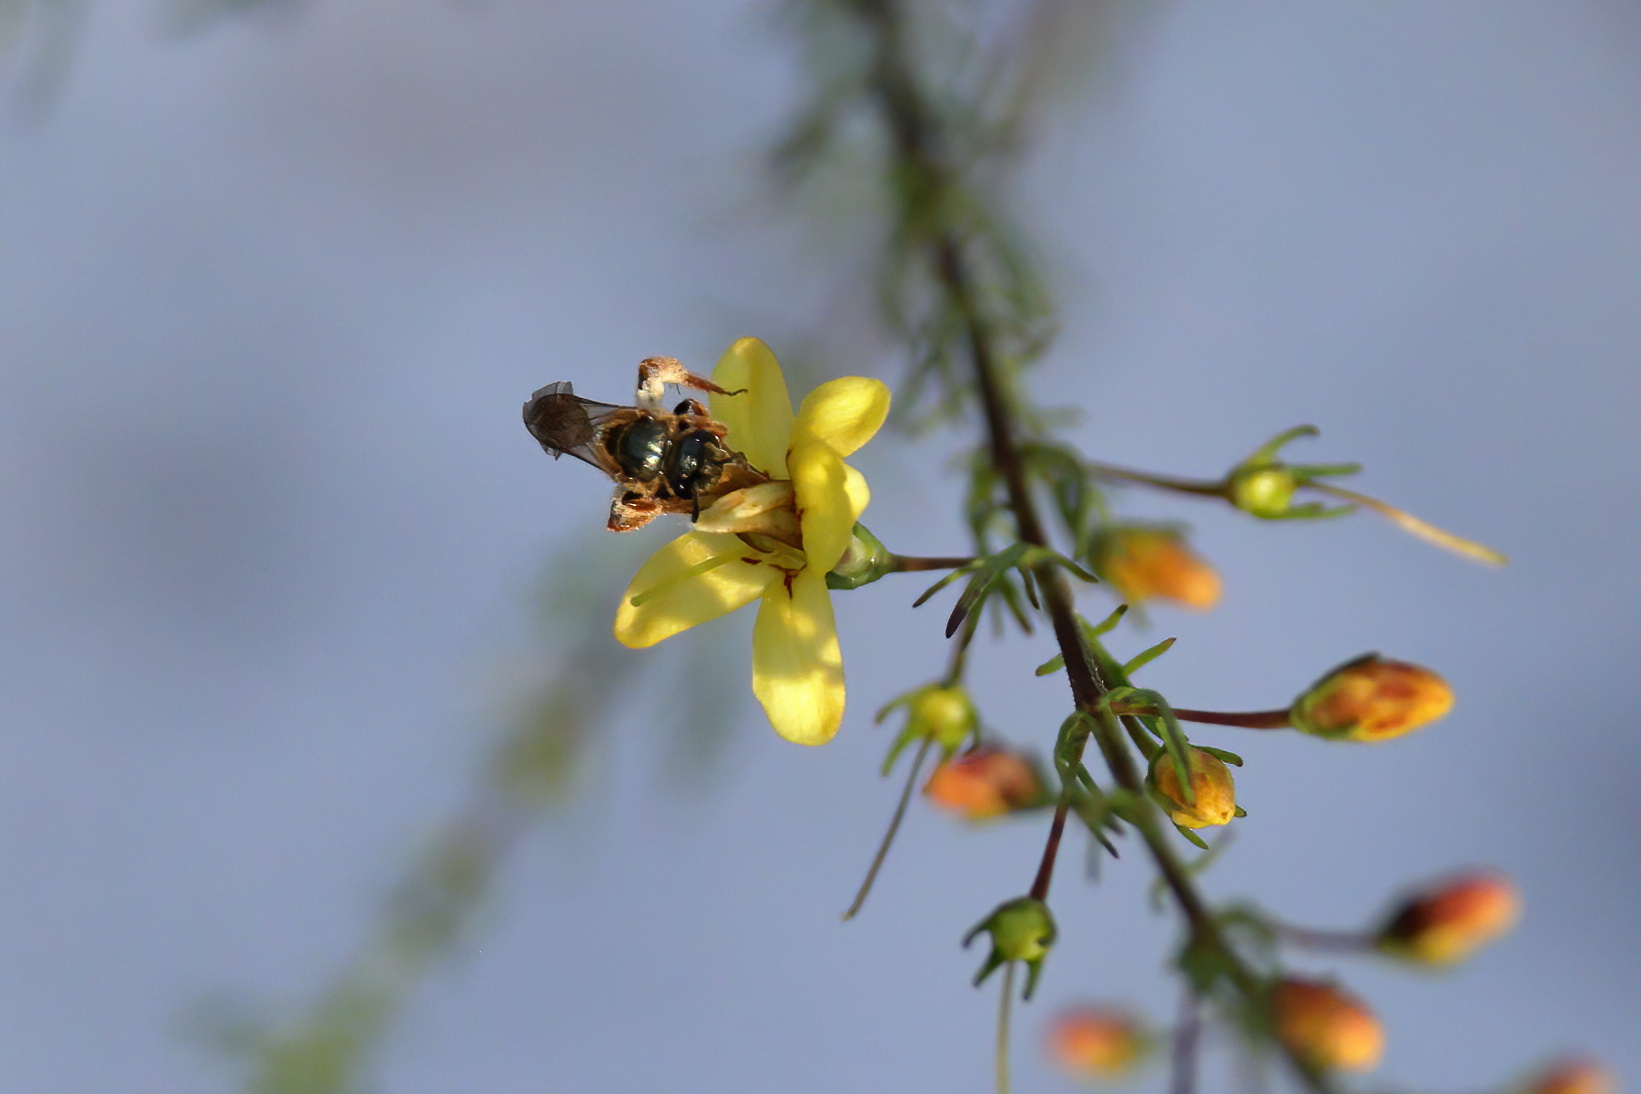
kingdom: Animalia
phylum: Arthropoda
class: Insecta
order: Hymenoptera
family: Halictidae
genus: Lasioglossum
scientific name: Lasioglossum reticulatum
